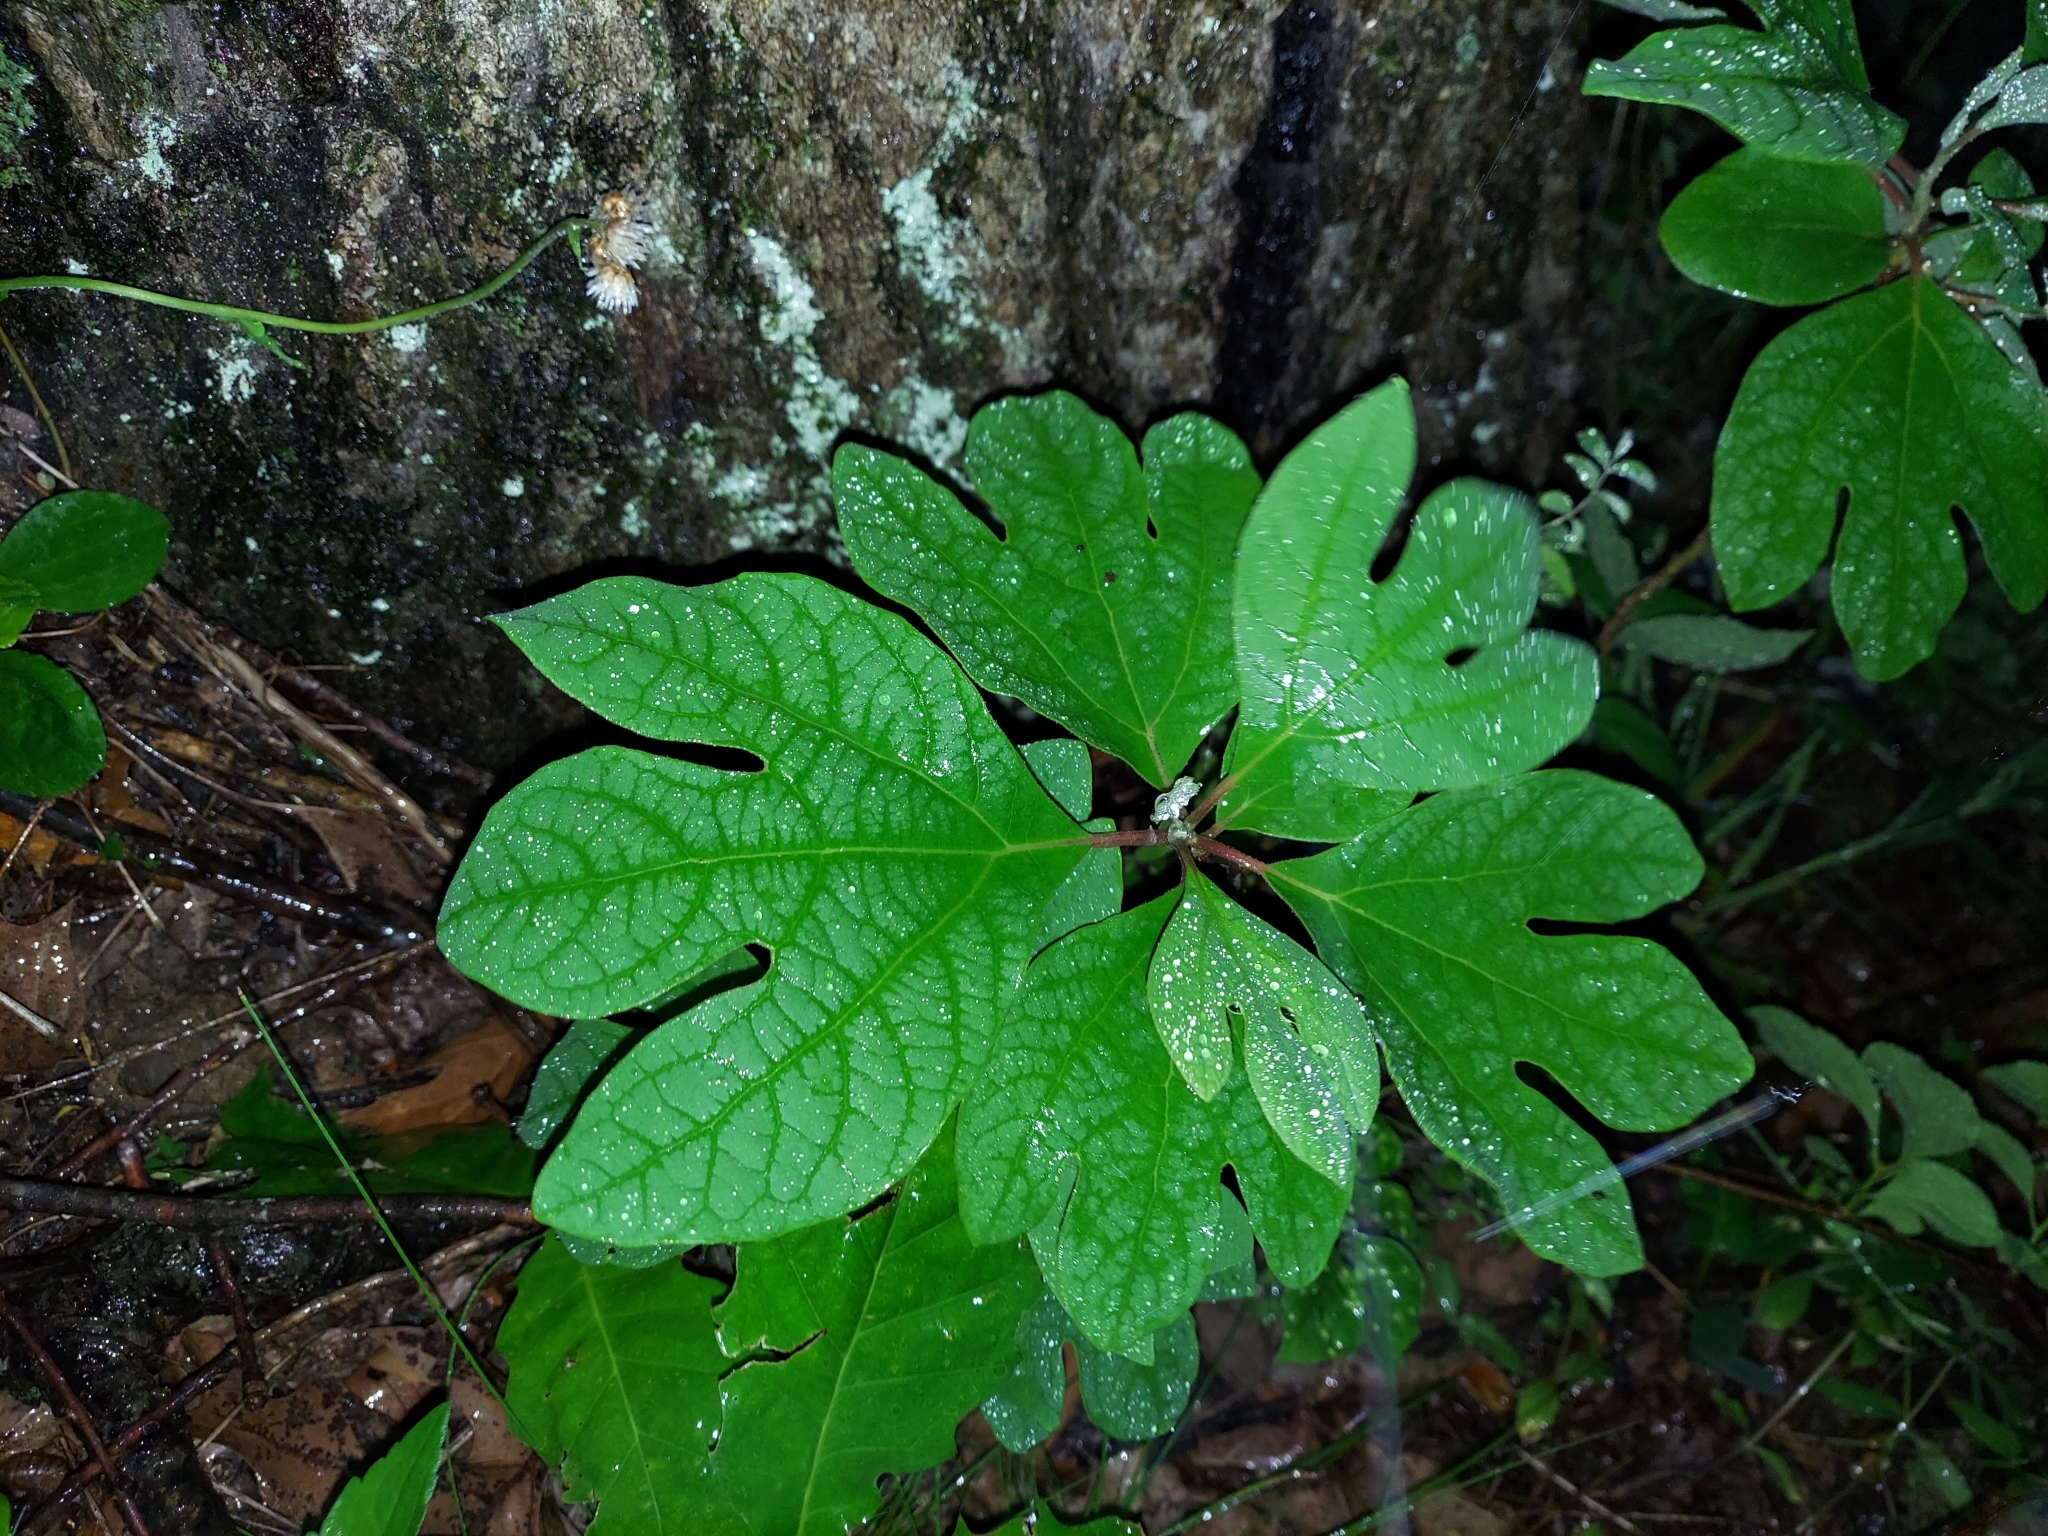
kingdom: Plantae
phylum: Tracheophyta
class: Magnoliopsida
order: Laurales
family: Lauraceae
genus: Sassafras
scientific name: Sassafras albidum
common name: Sassafras
